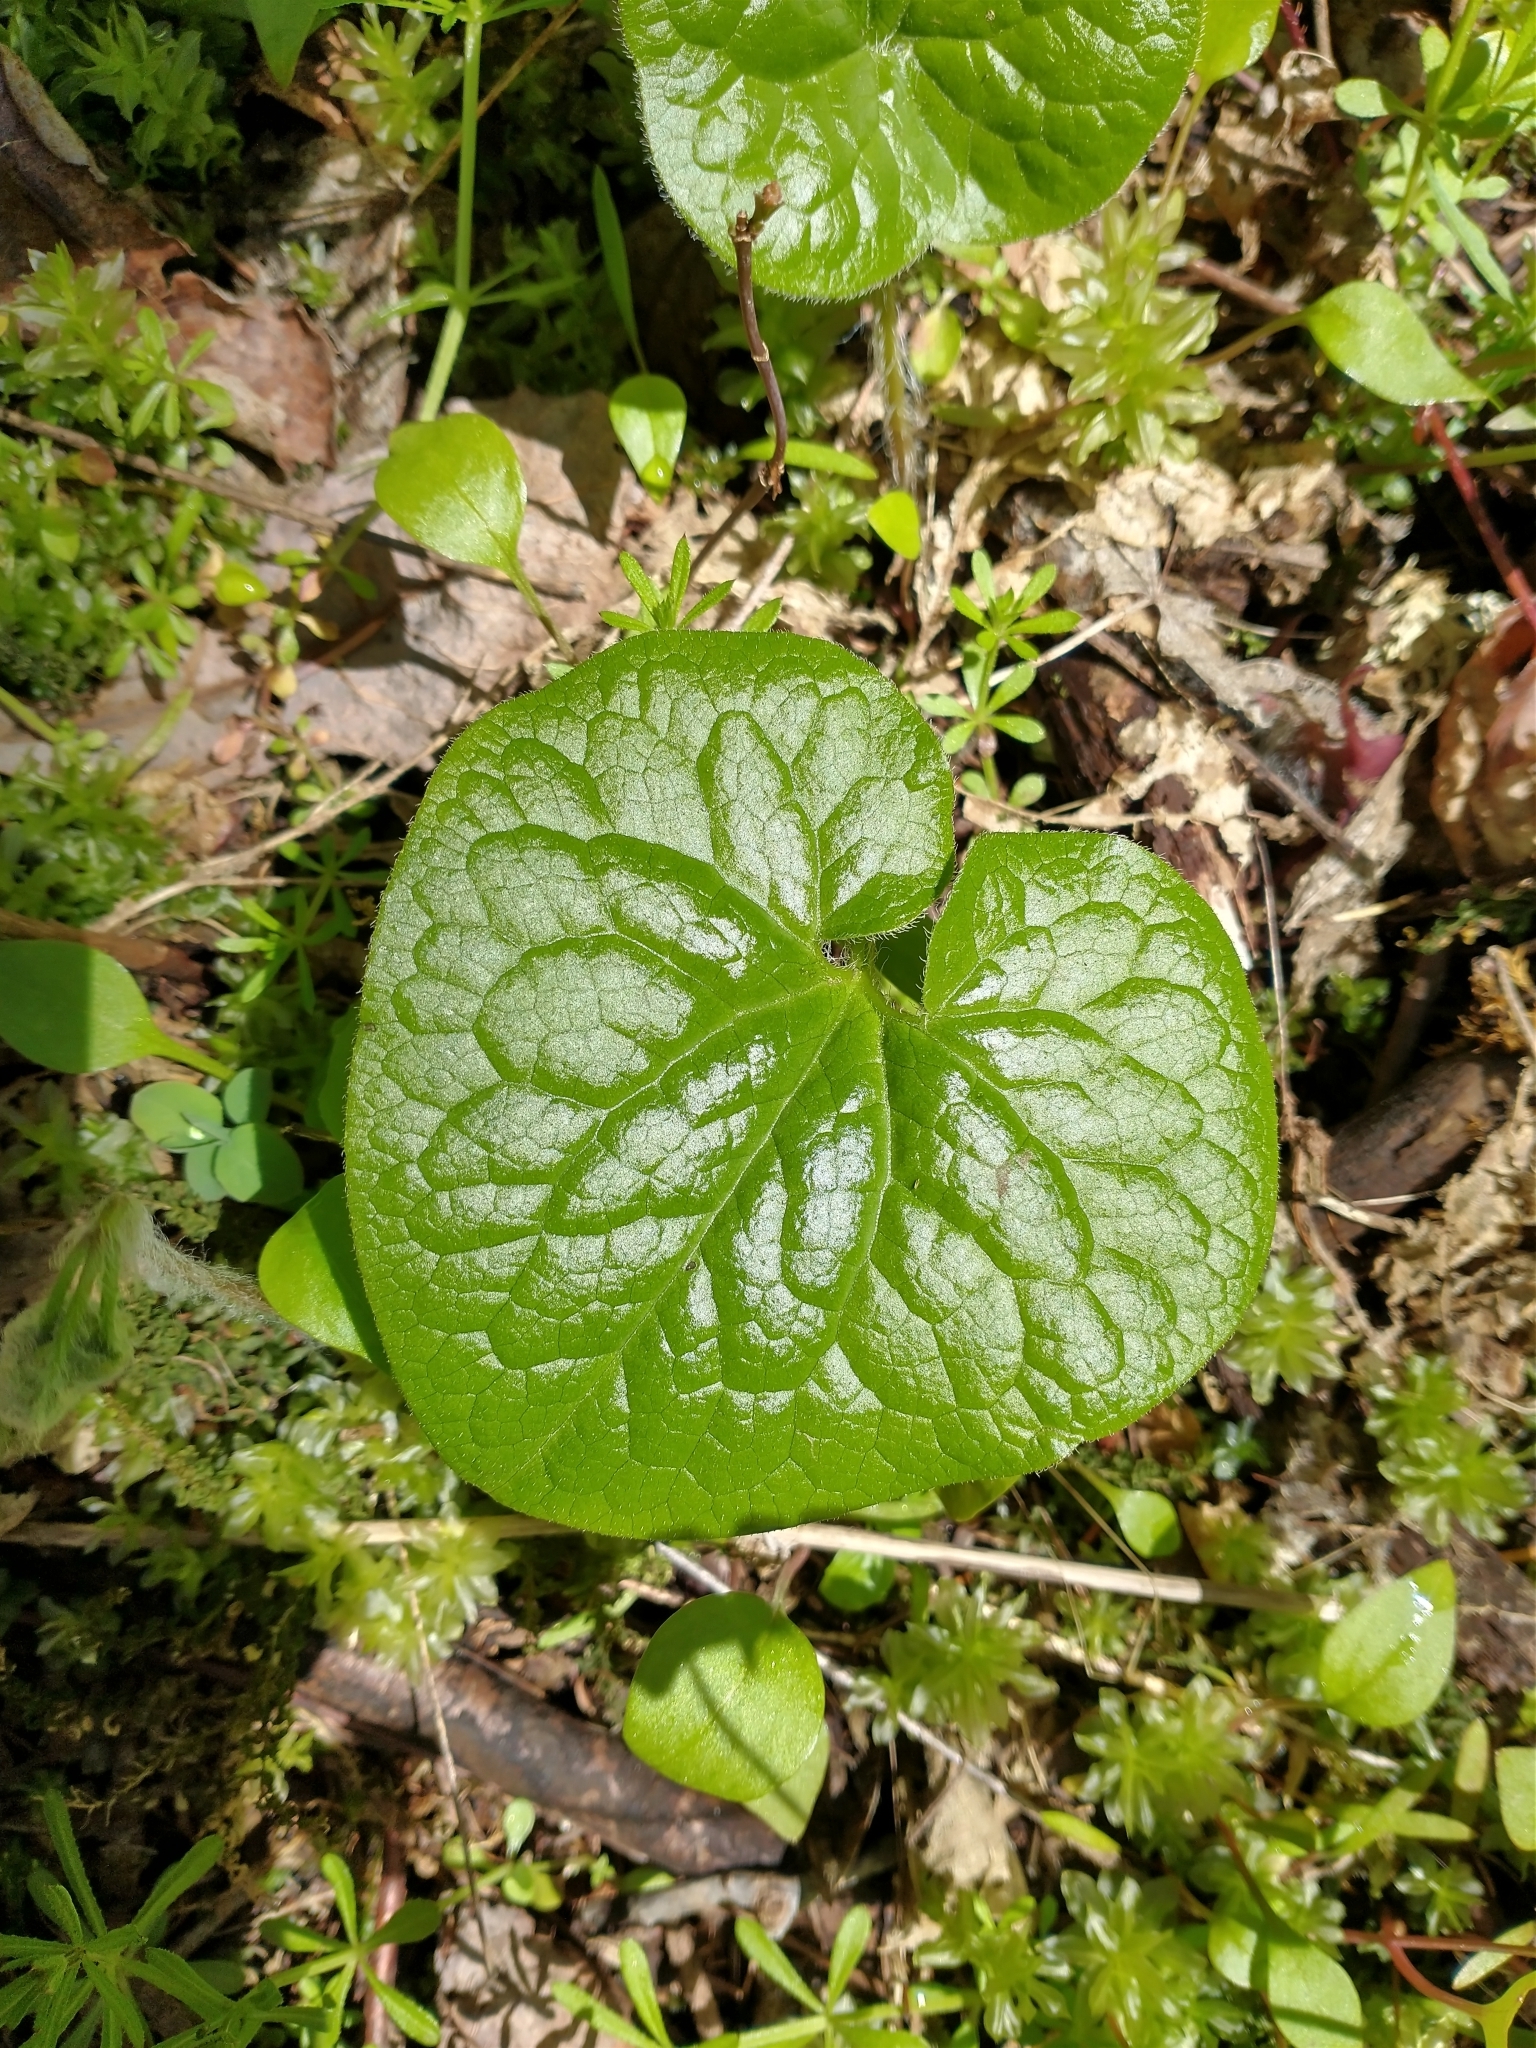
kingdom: Plantae
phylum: Tracheophyta
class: Magnoliopsida
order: Piperales
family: Aristolochiaceae
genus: Asarum
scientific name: Asarum caudatum
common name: Wild ginger
